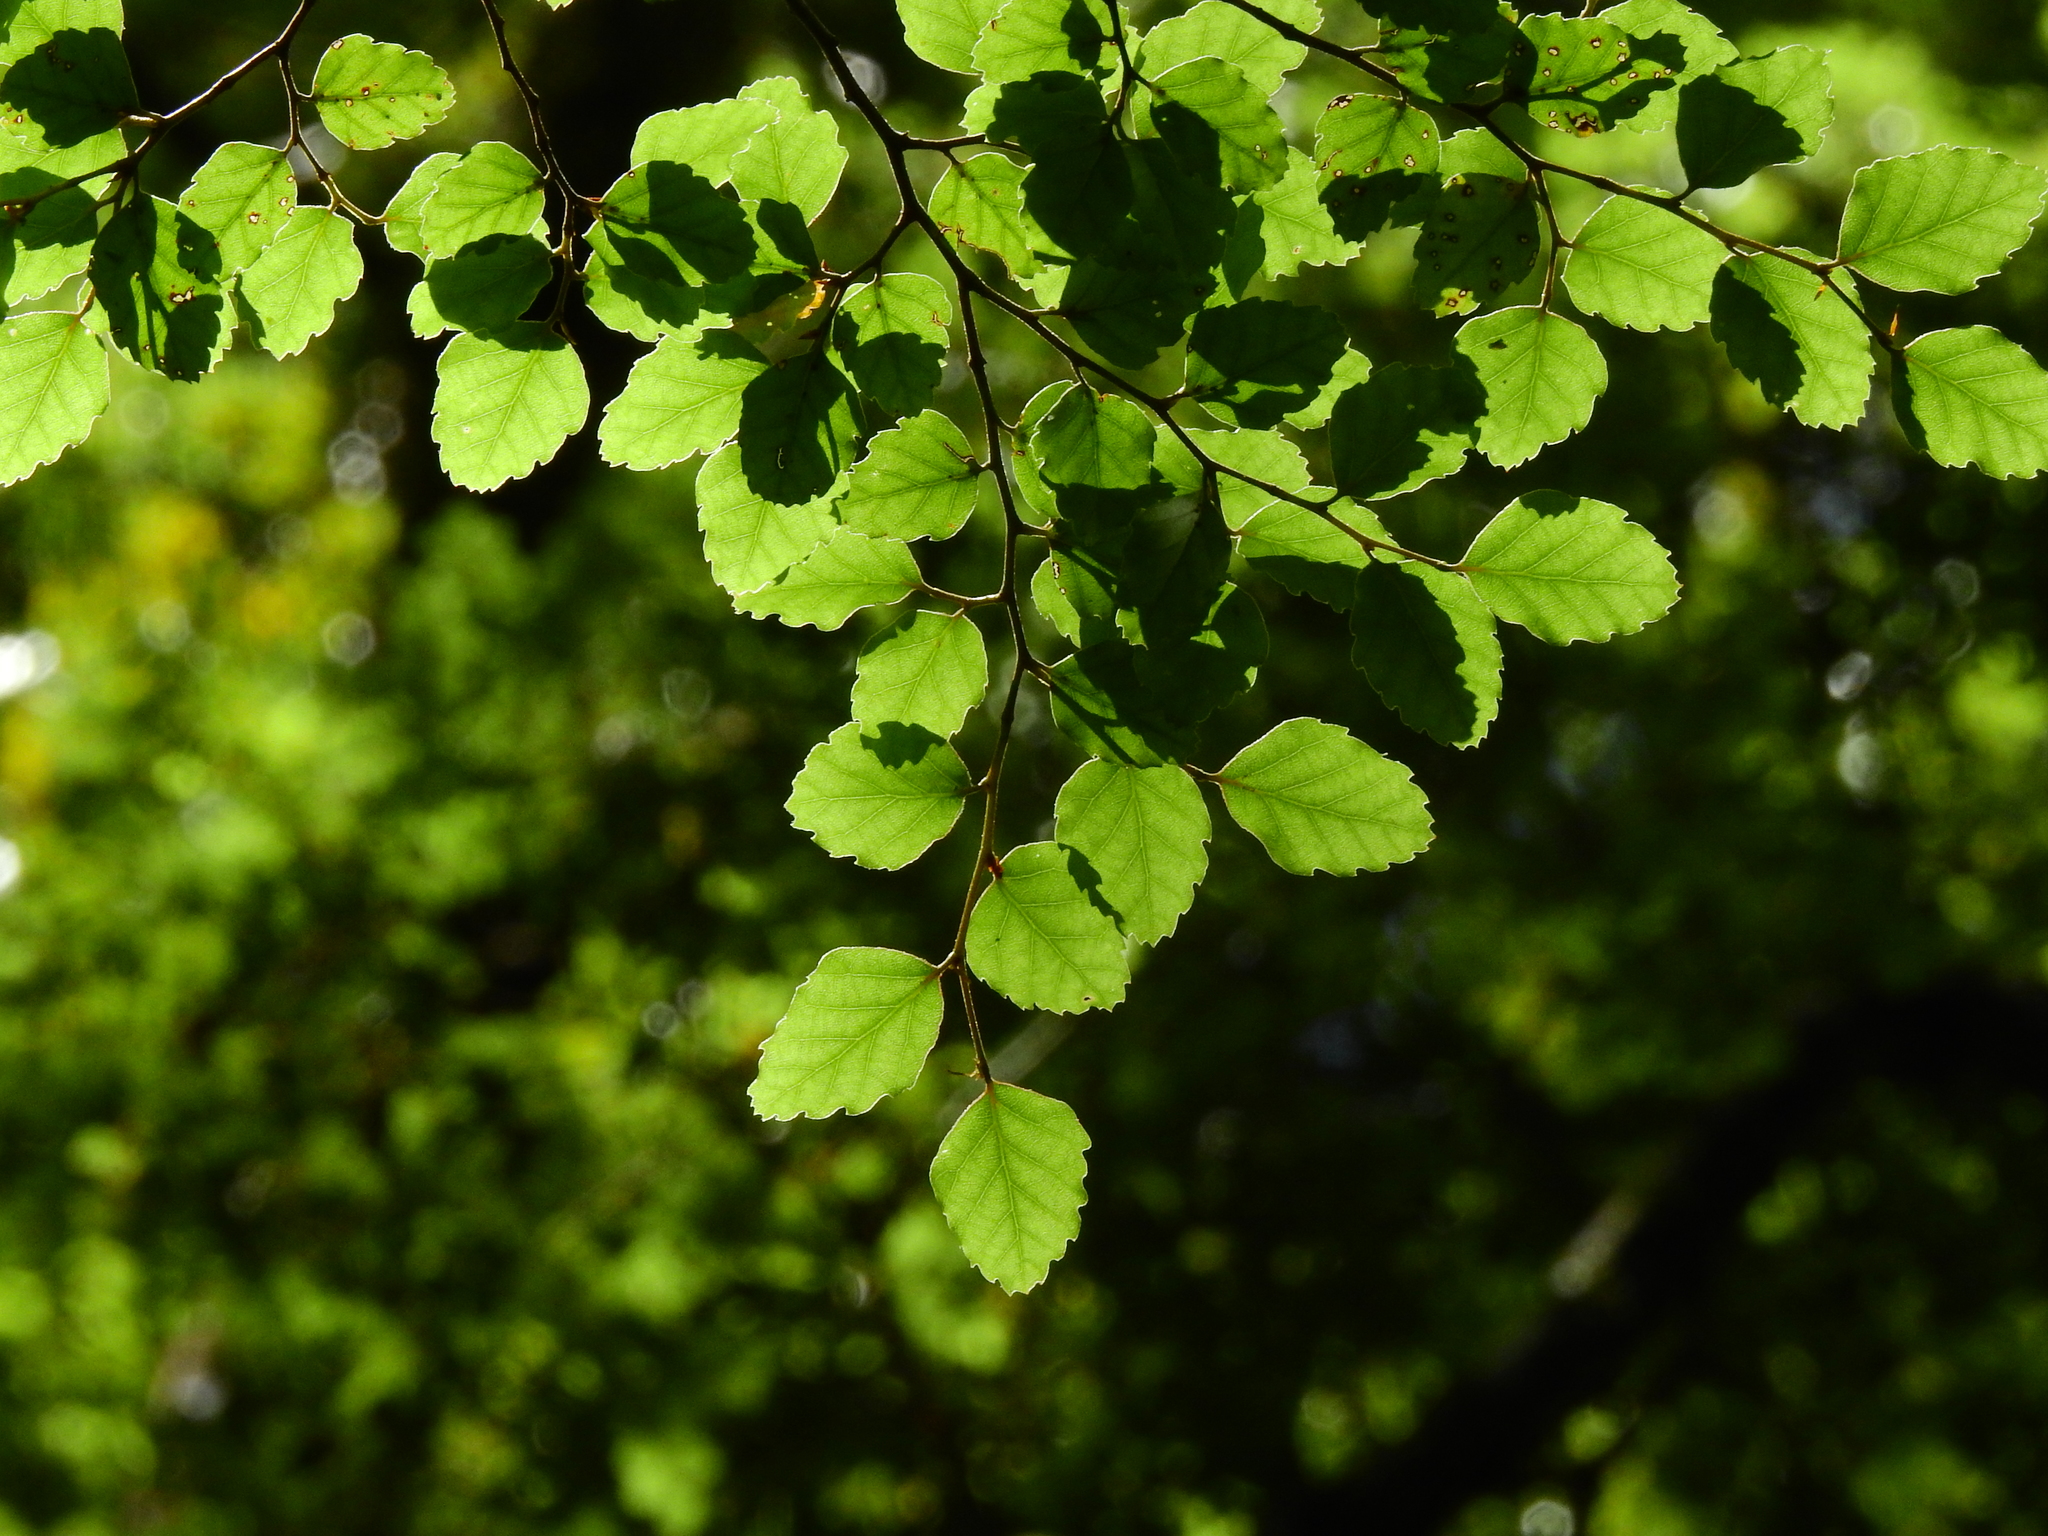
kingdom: Plantae
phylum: Tracheophyta
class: Magnoliopsida
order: Fagales
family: Nothofagaceae
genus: Nothofagus
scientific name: Nothofagus fusca
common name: Red beech
